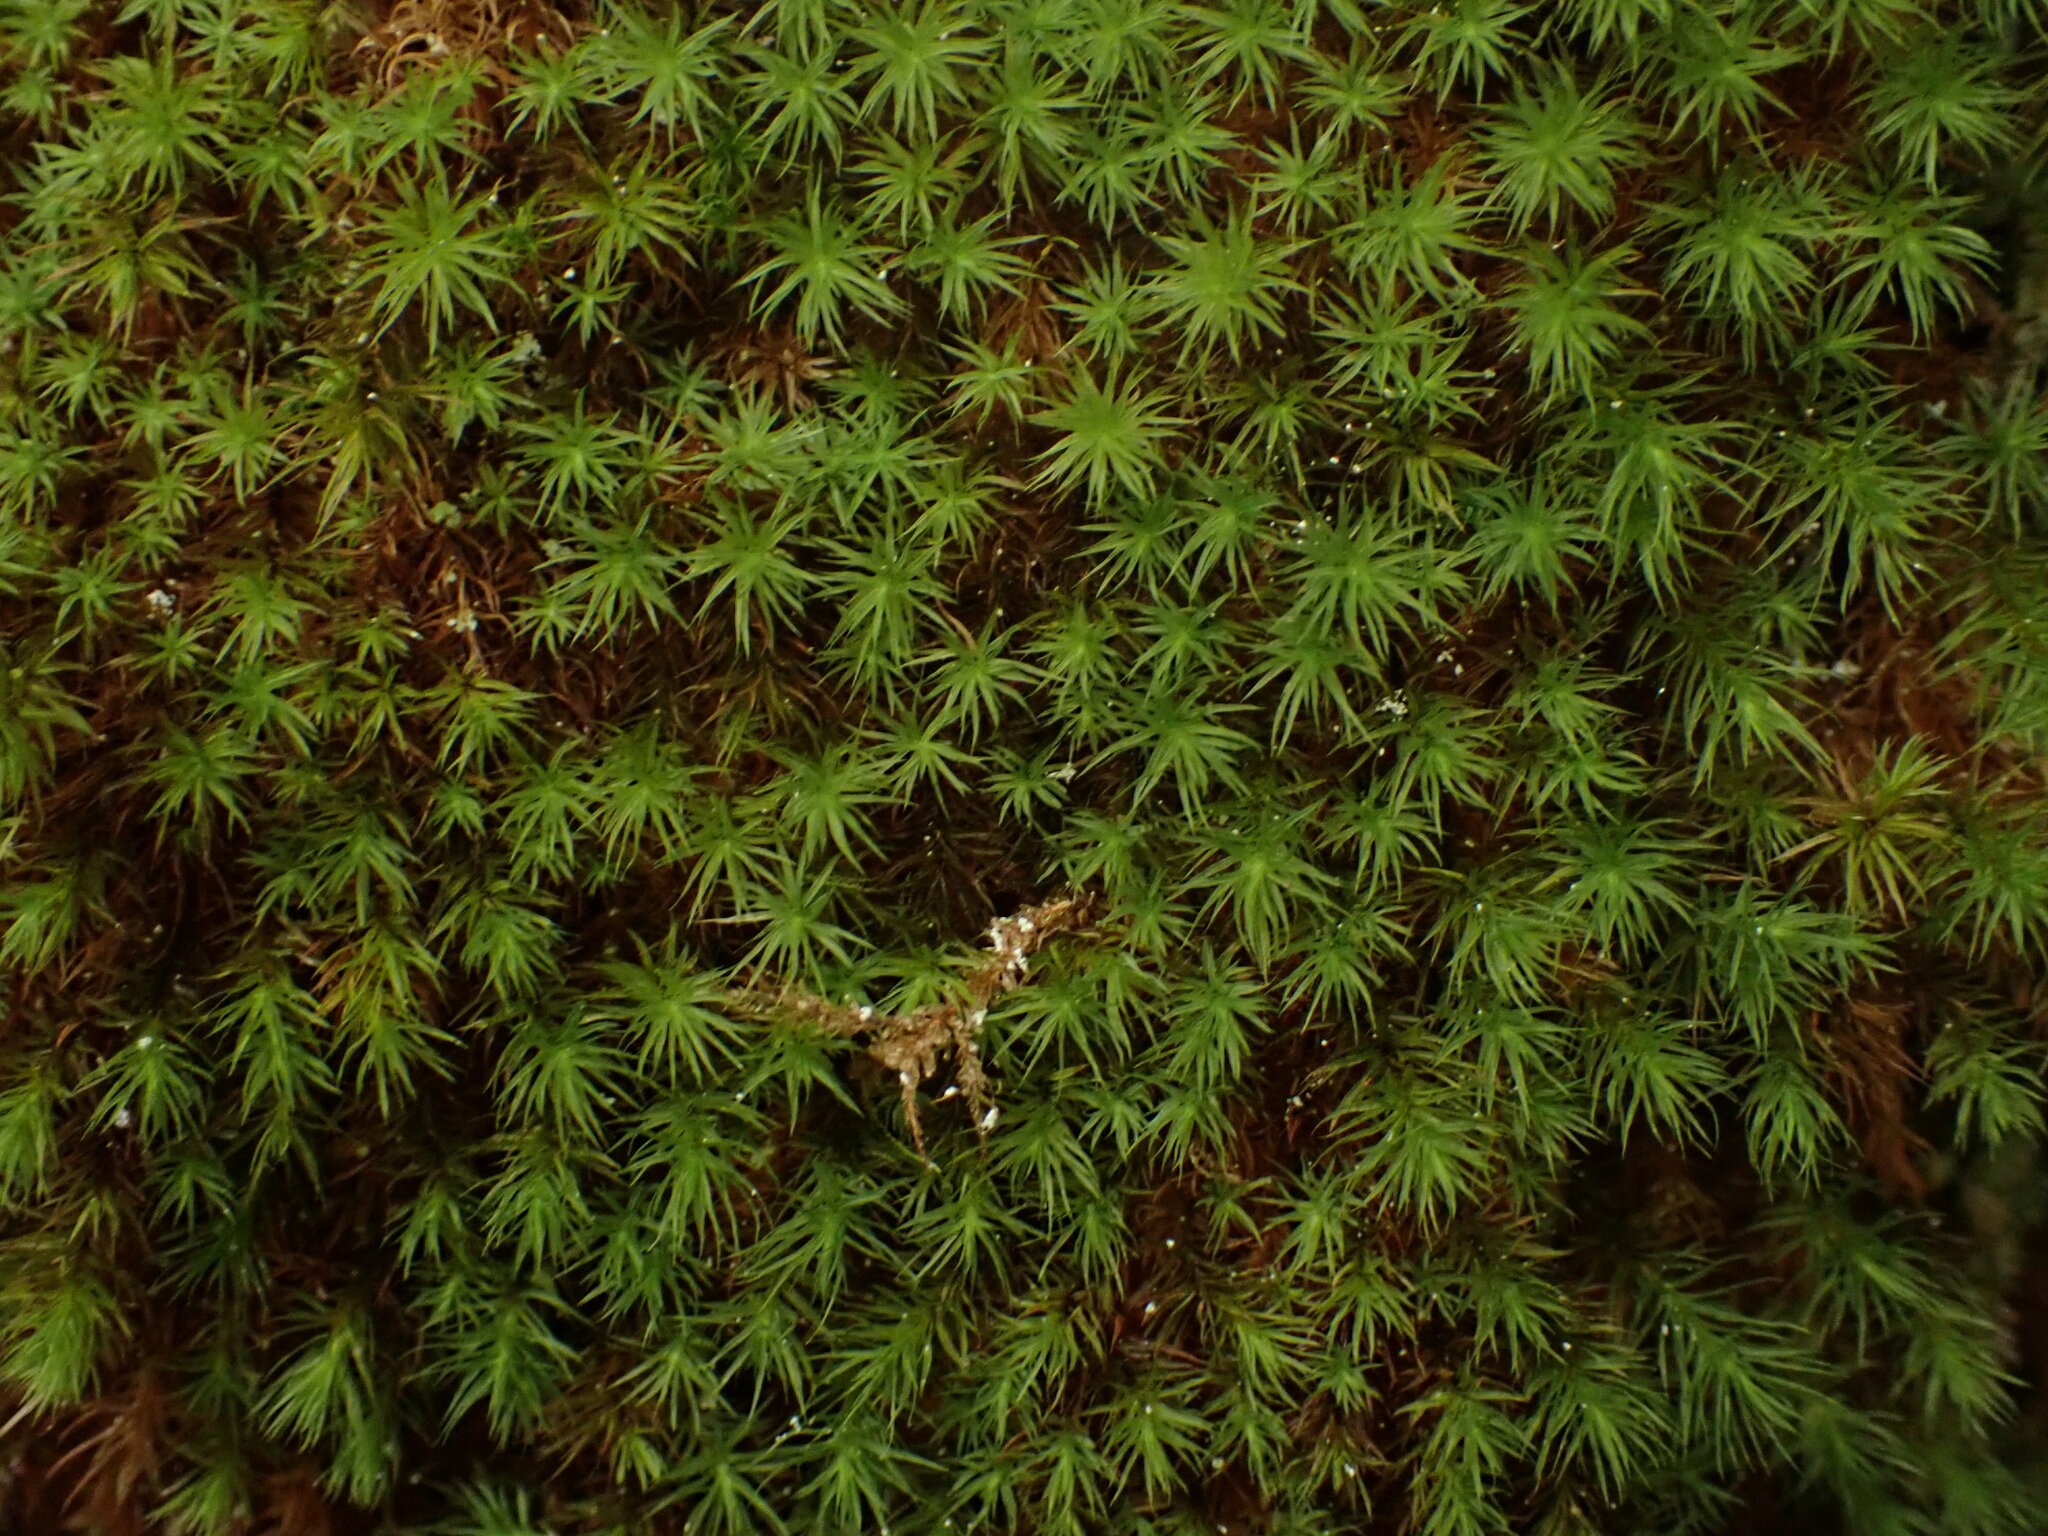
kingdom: Plantae
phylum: Bryophyta
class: Bryopsida
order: Bartramiales
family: Bartramiaceae
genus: Bartramia
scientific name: Bartramia ithyphylla
